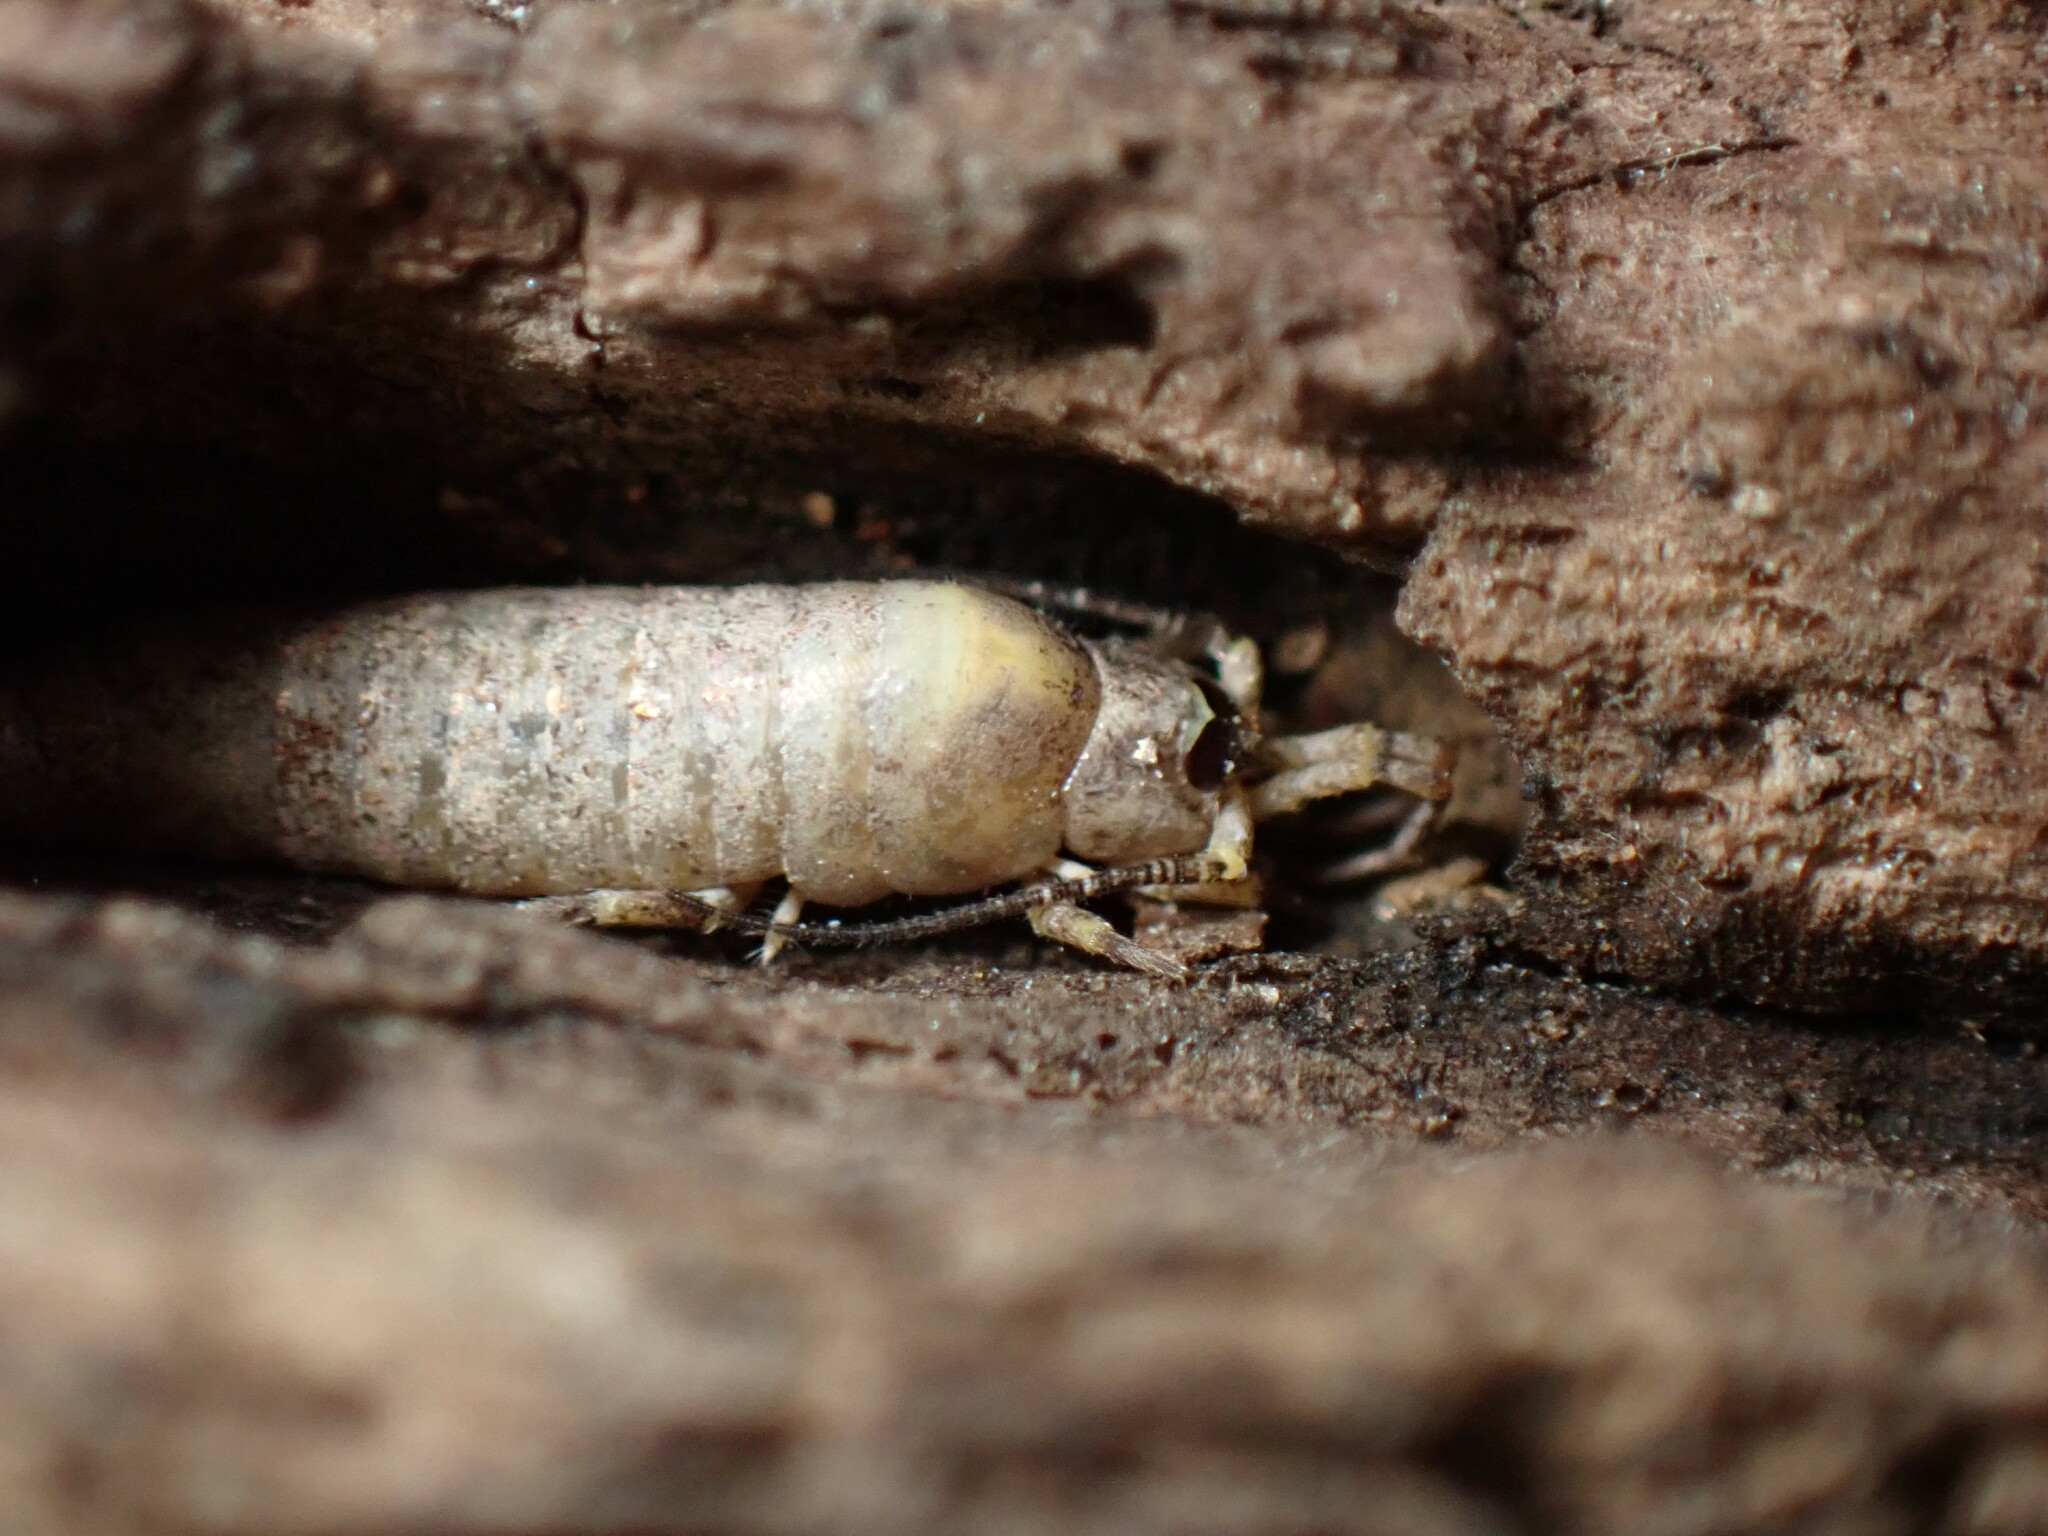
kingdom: Animalia
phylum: Arthropoda
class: Insecta
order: Archaeognatha
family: Machilidae
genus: Trigoniophthalmus
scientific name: Trigoniophthalmus alternatus
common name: Jumping bristletail
